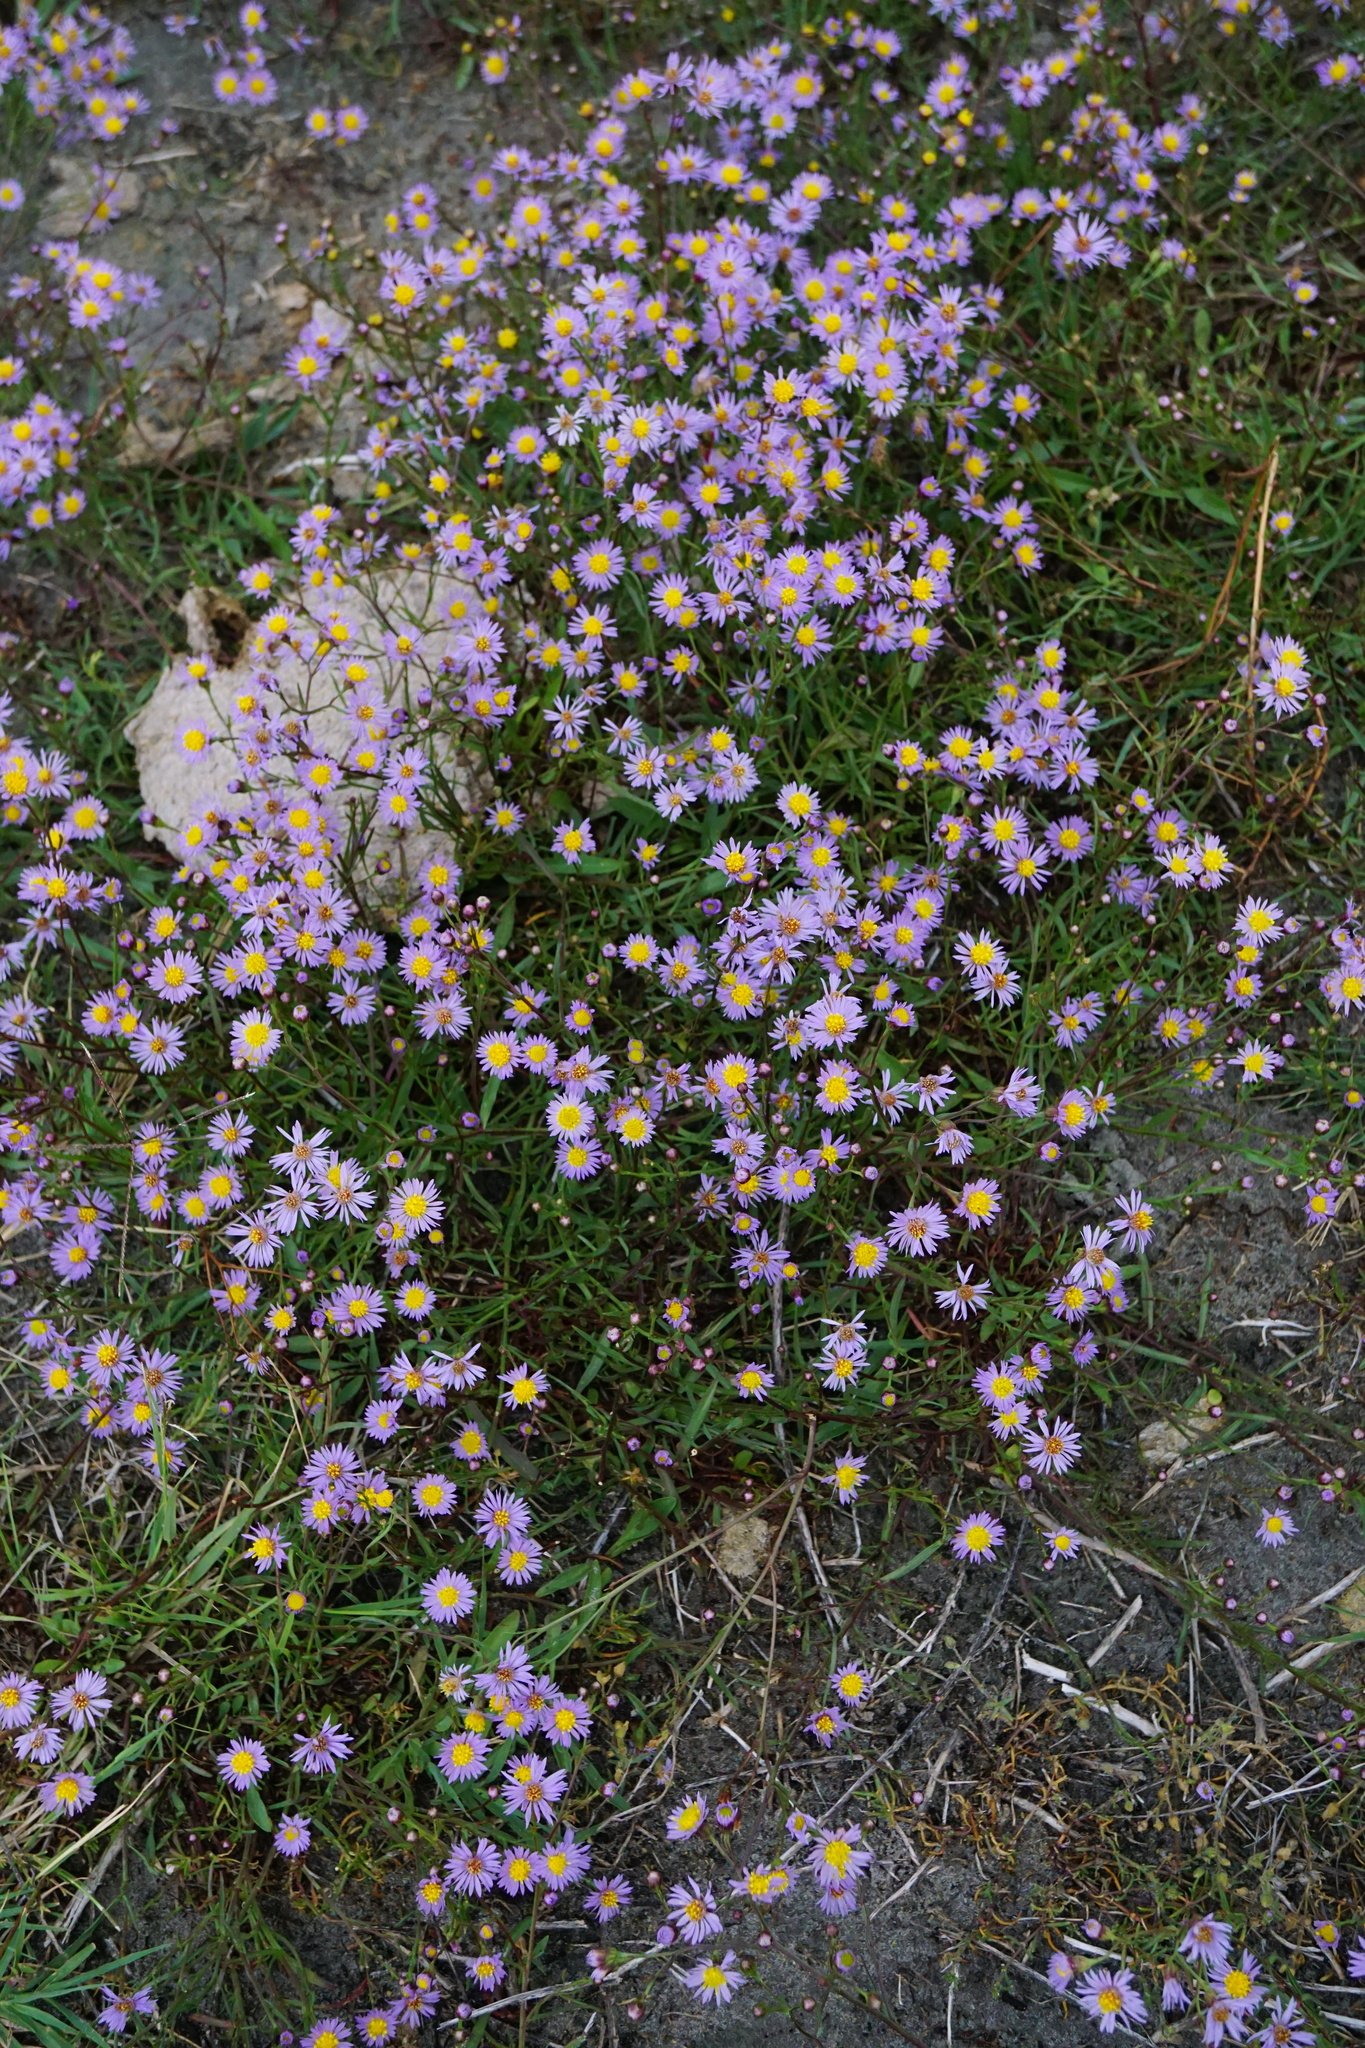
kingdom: Plantae
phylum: Tracheophyta
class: Magnoliopsida
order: Asterales
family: Asteraceae
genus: Tripolium
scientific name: Tripolium pannonicum
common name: Sea aster
